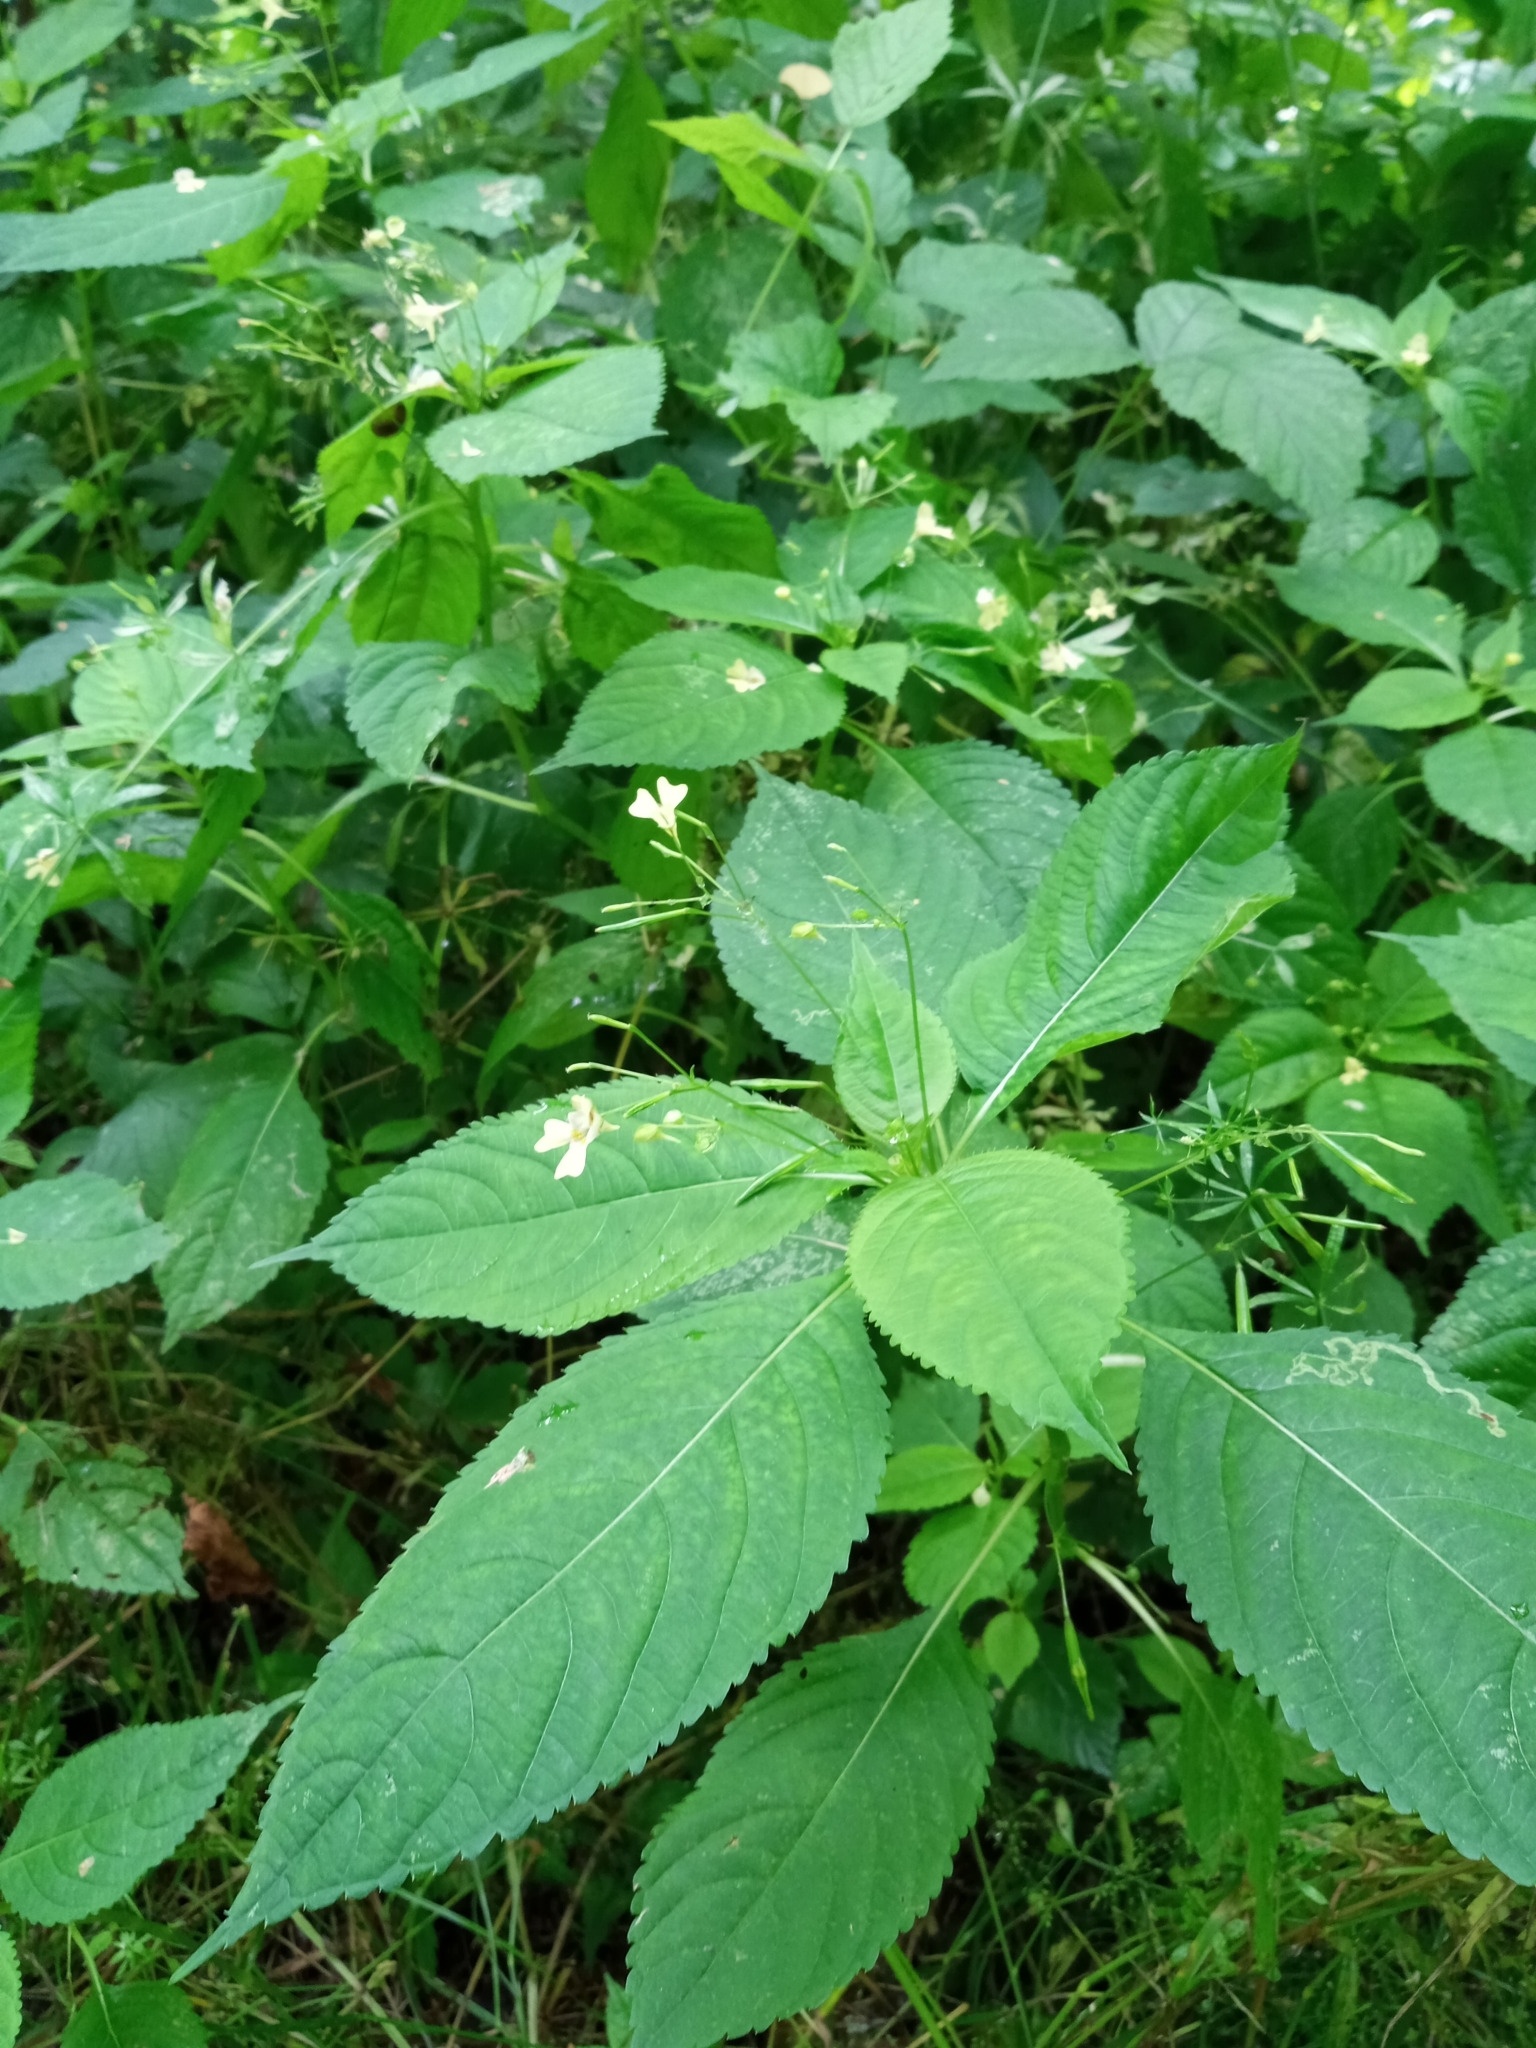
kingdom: Plantae
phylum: Tracheophyta
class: Magnoliopsida
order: Ericales
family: Balsaminaceae
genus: Impatiens
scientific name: Impatiens parviflora
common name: Small balsam
